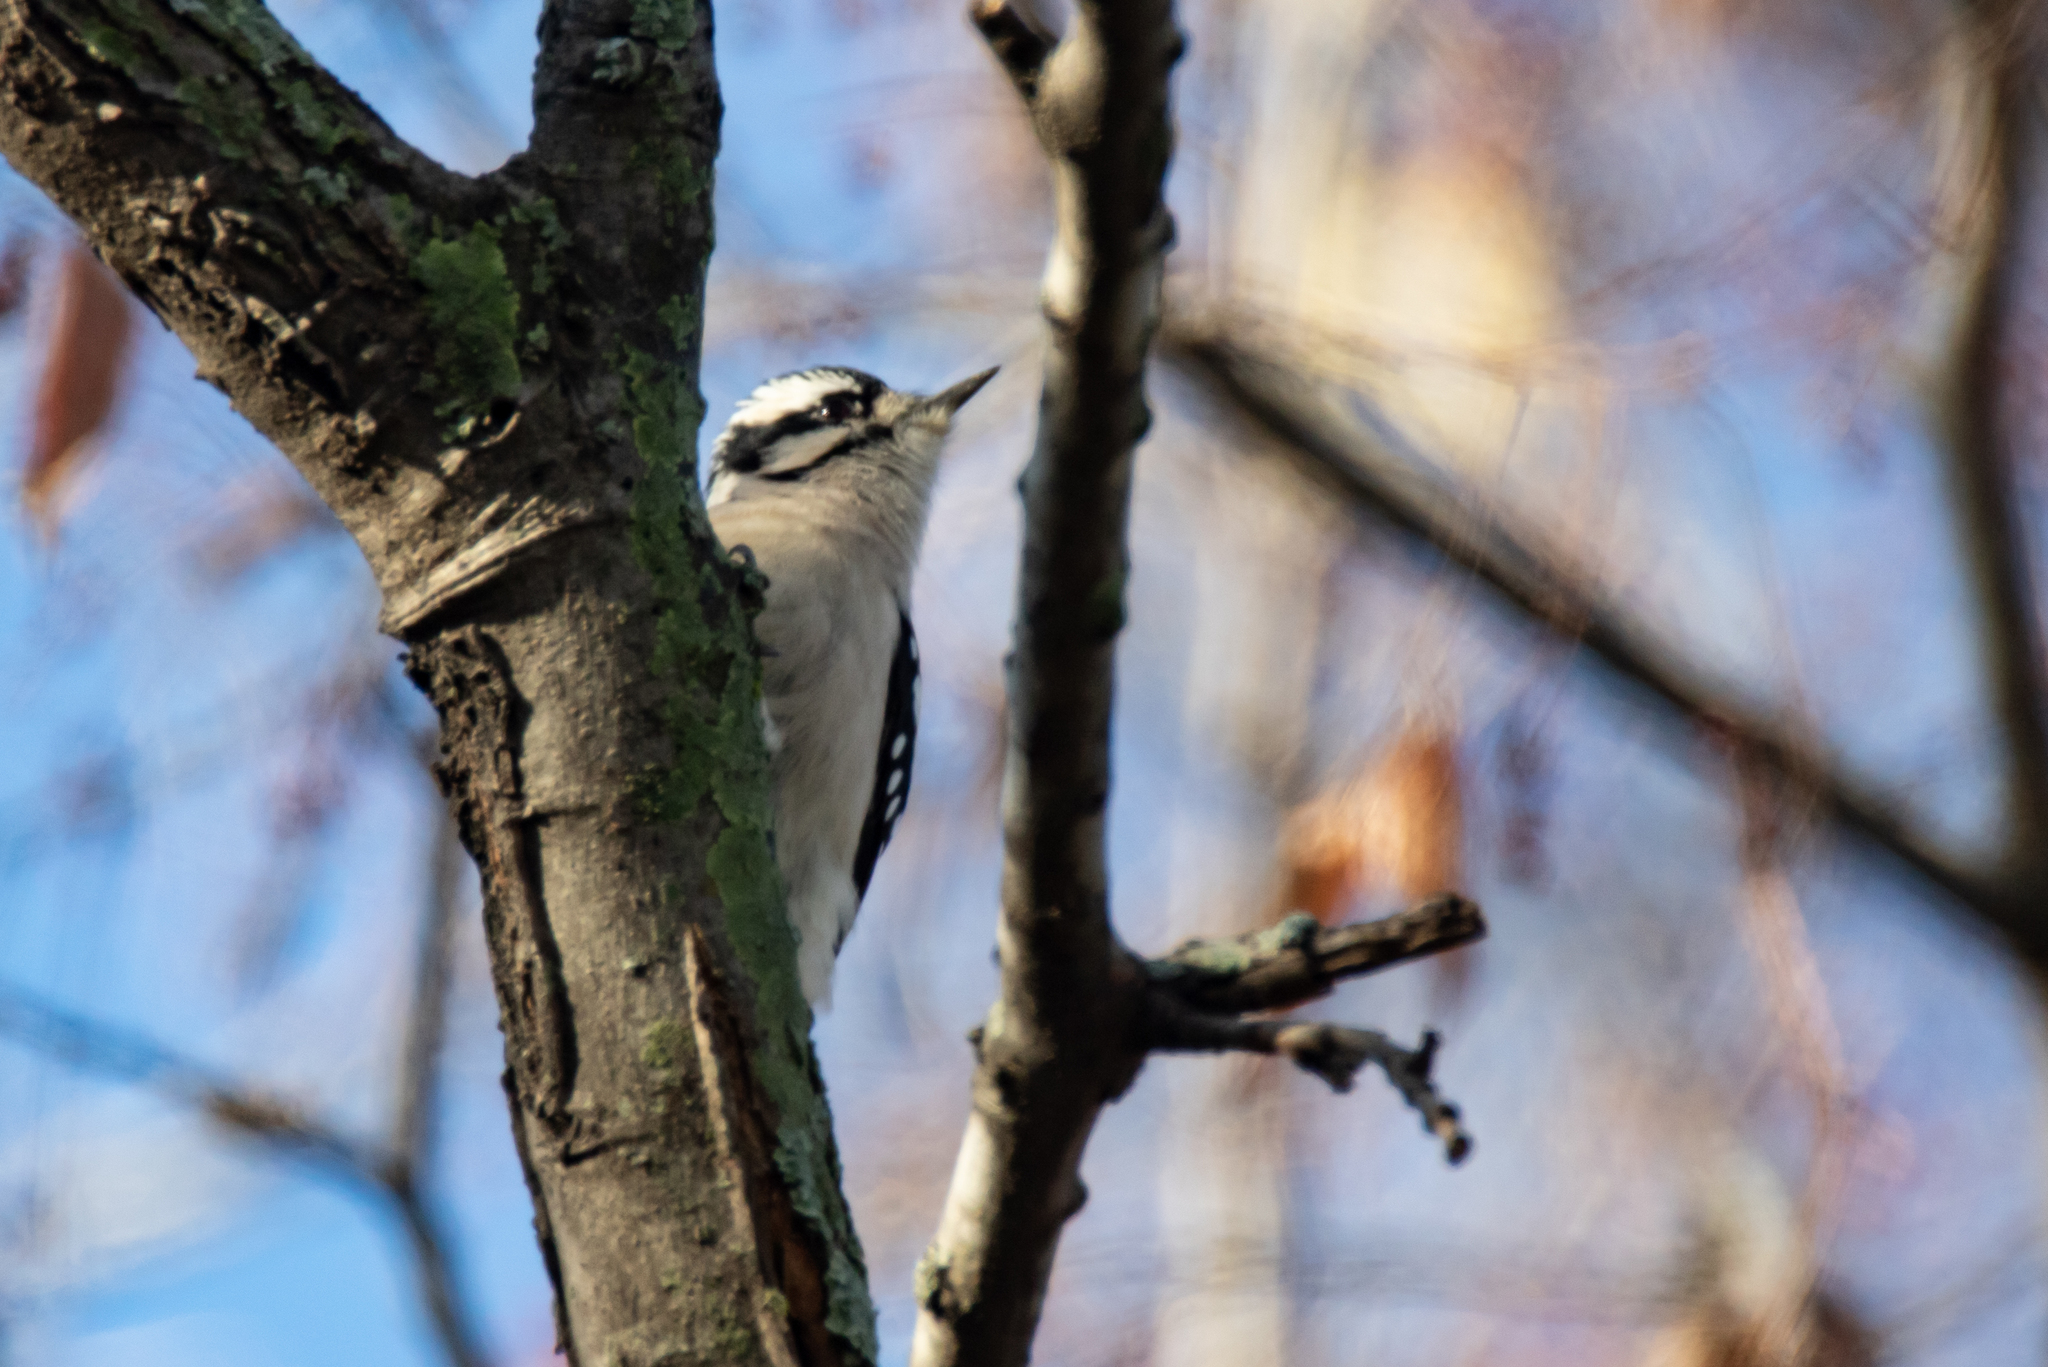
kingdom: Animalia
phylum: Chordata
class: Aves
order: Piciformes
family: Picidae
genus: Dryobates
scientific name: Dryobates pubescens
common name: Downy woodpecker
